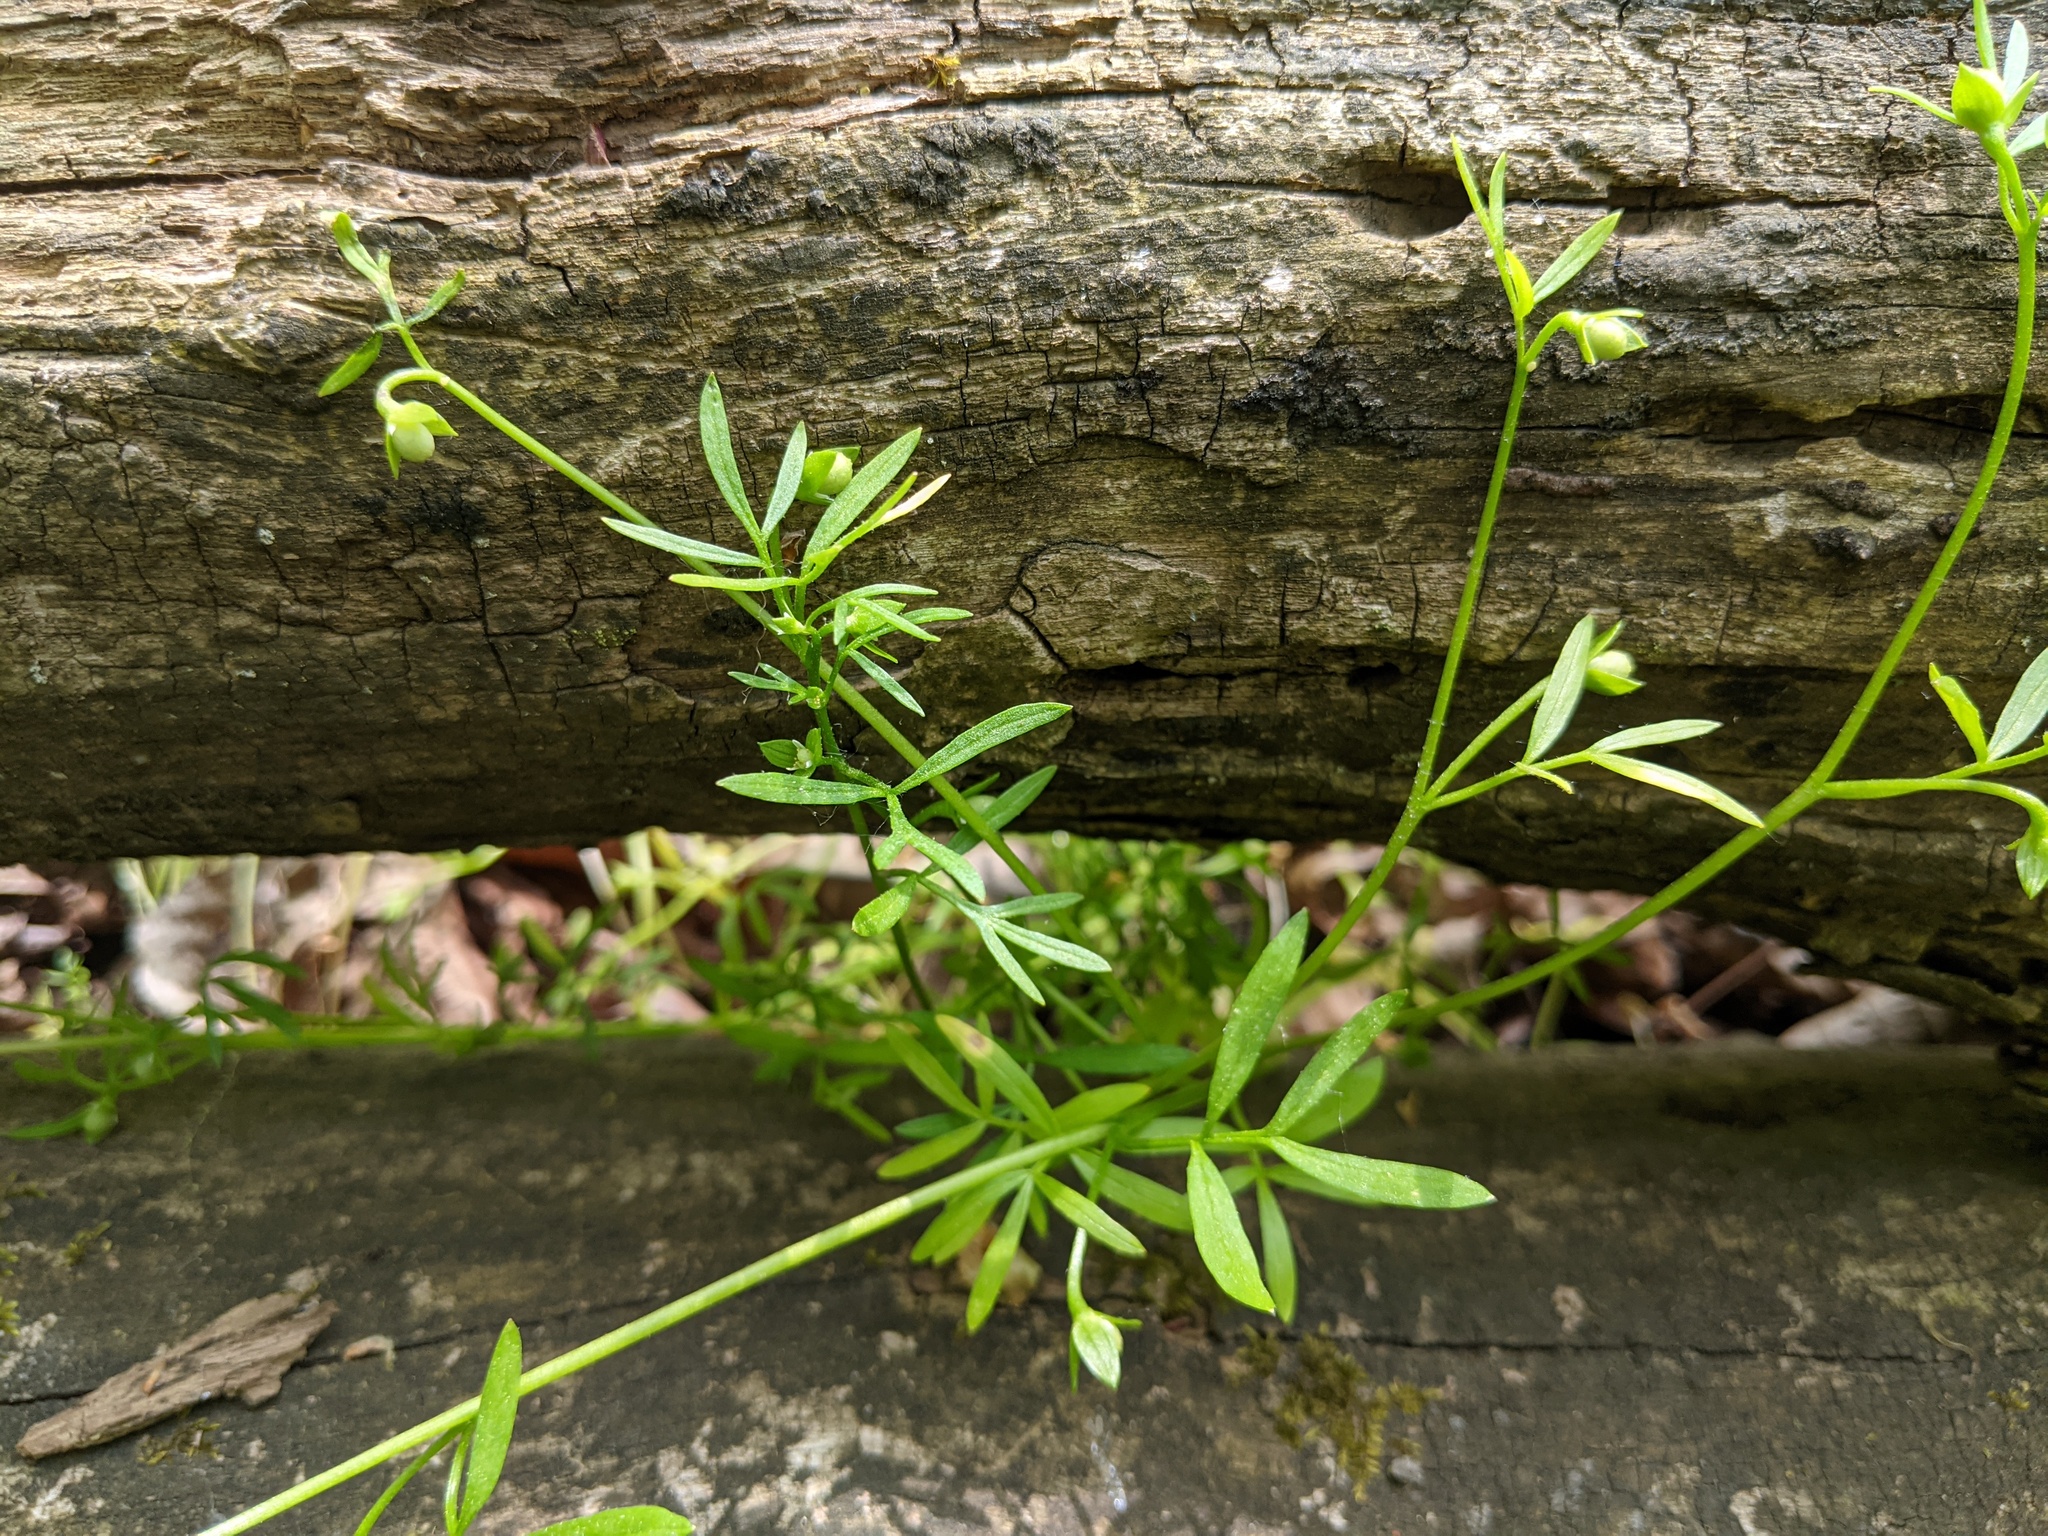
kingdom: Plantae
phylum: Tracheophyta
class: Magnoliopsida
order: Brassicales
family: Limnanthaceae
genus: Floerkea
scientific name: Floerkea proserpinacoides
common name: False mermaid
